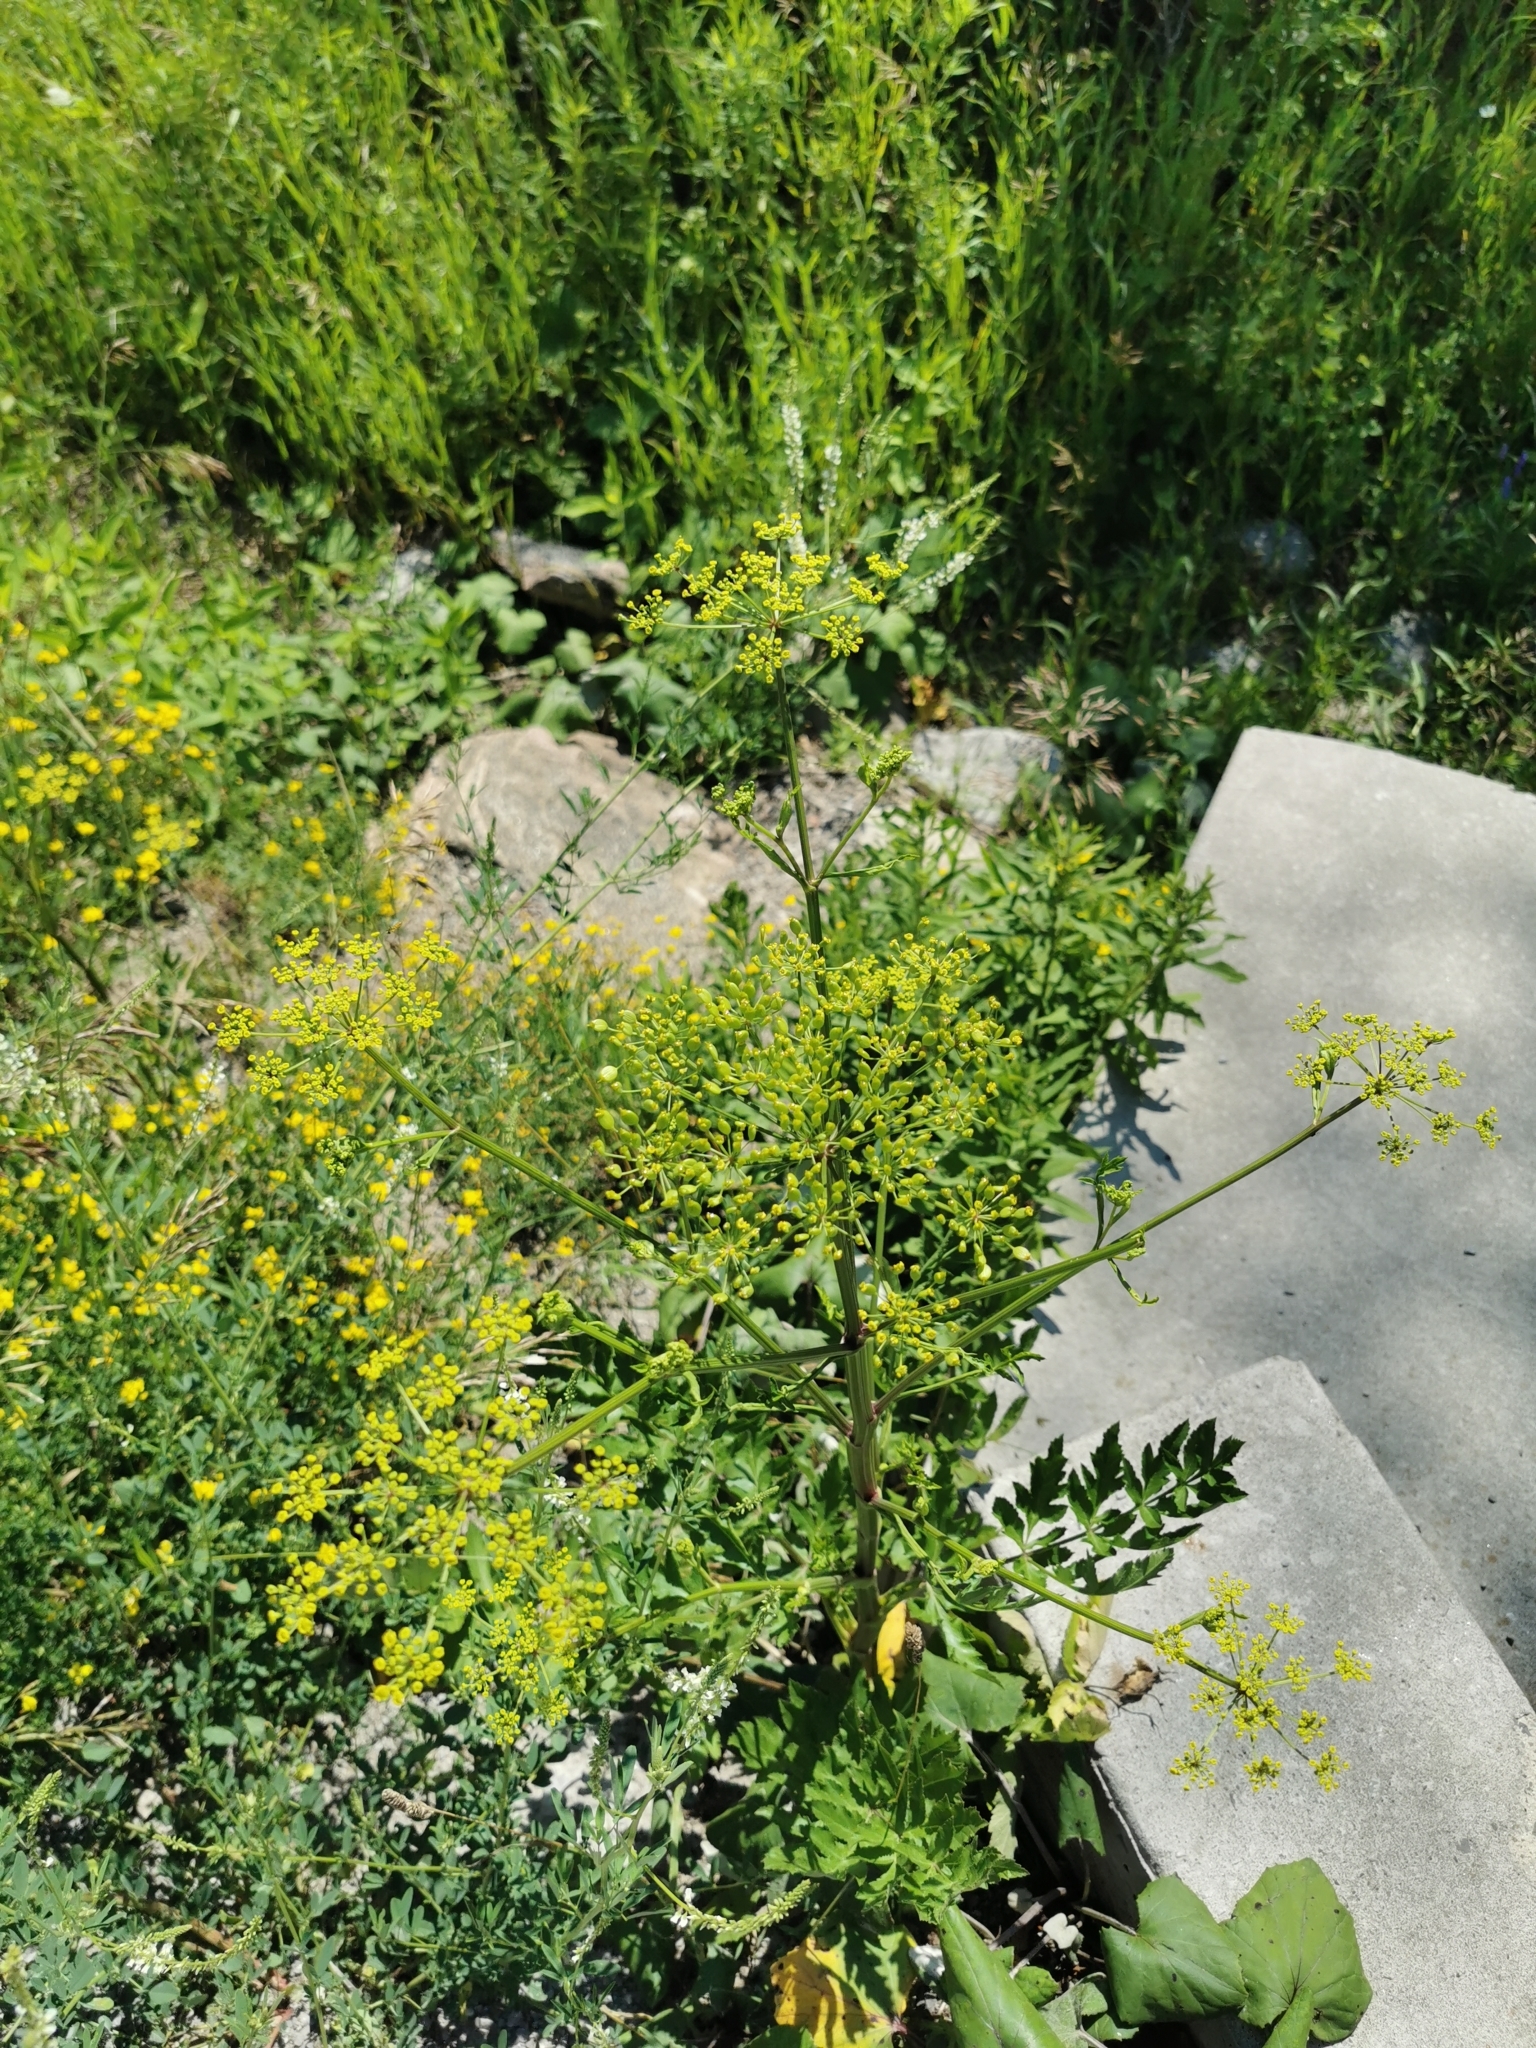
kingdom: Plantae
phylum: Tracheophyta
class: Magnoliopsida
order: Apiales
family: Apiaceae
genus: Pastinaca
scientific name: Pastinaca sativa
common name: Wild parsnip
